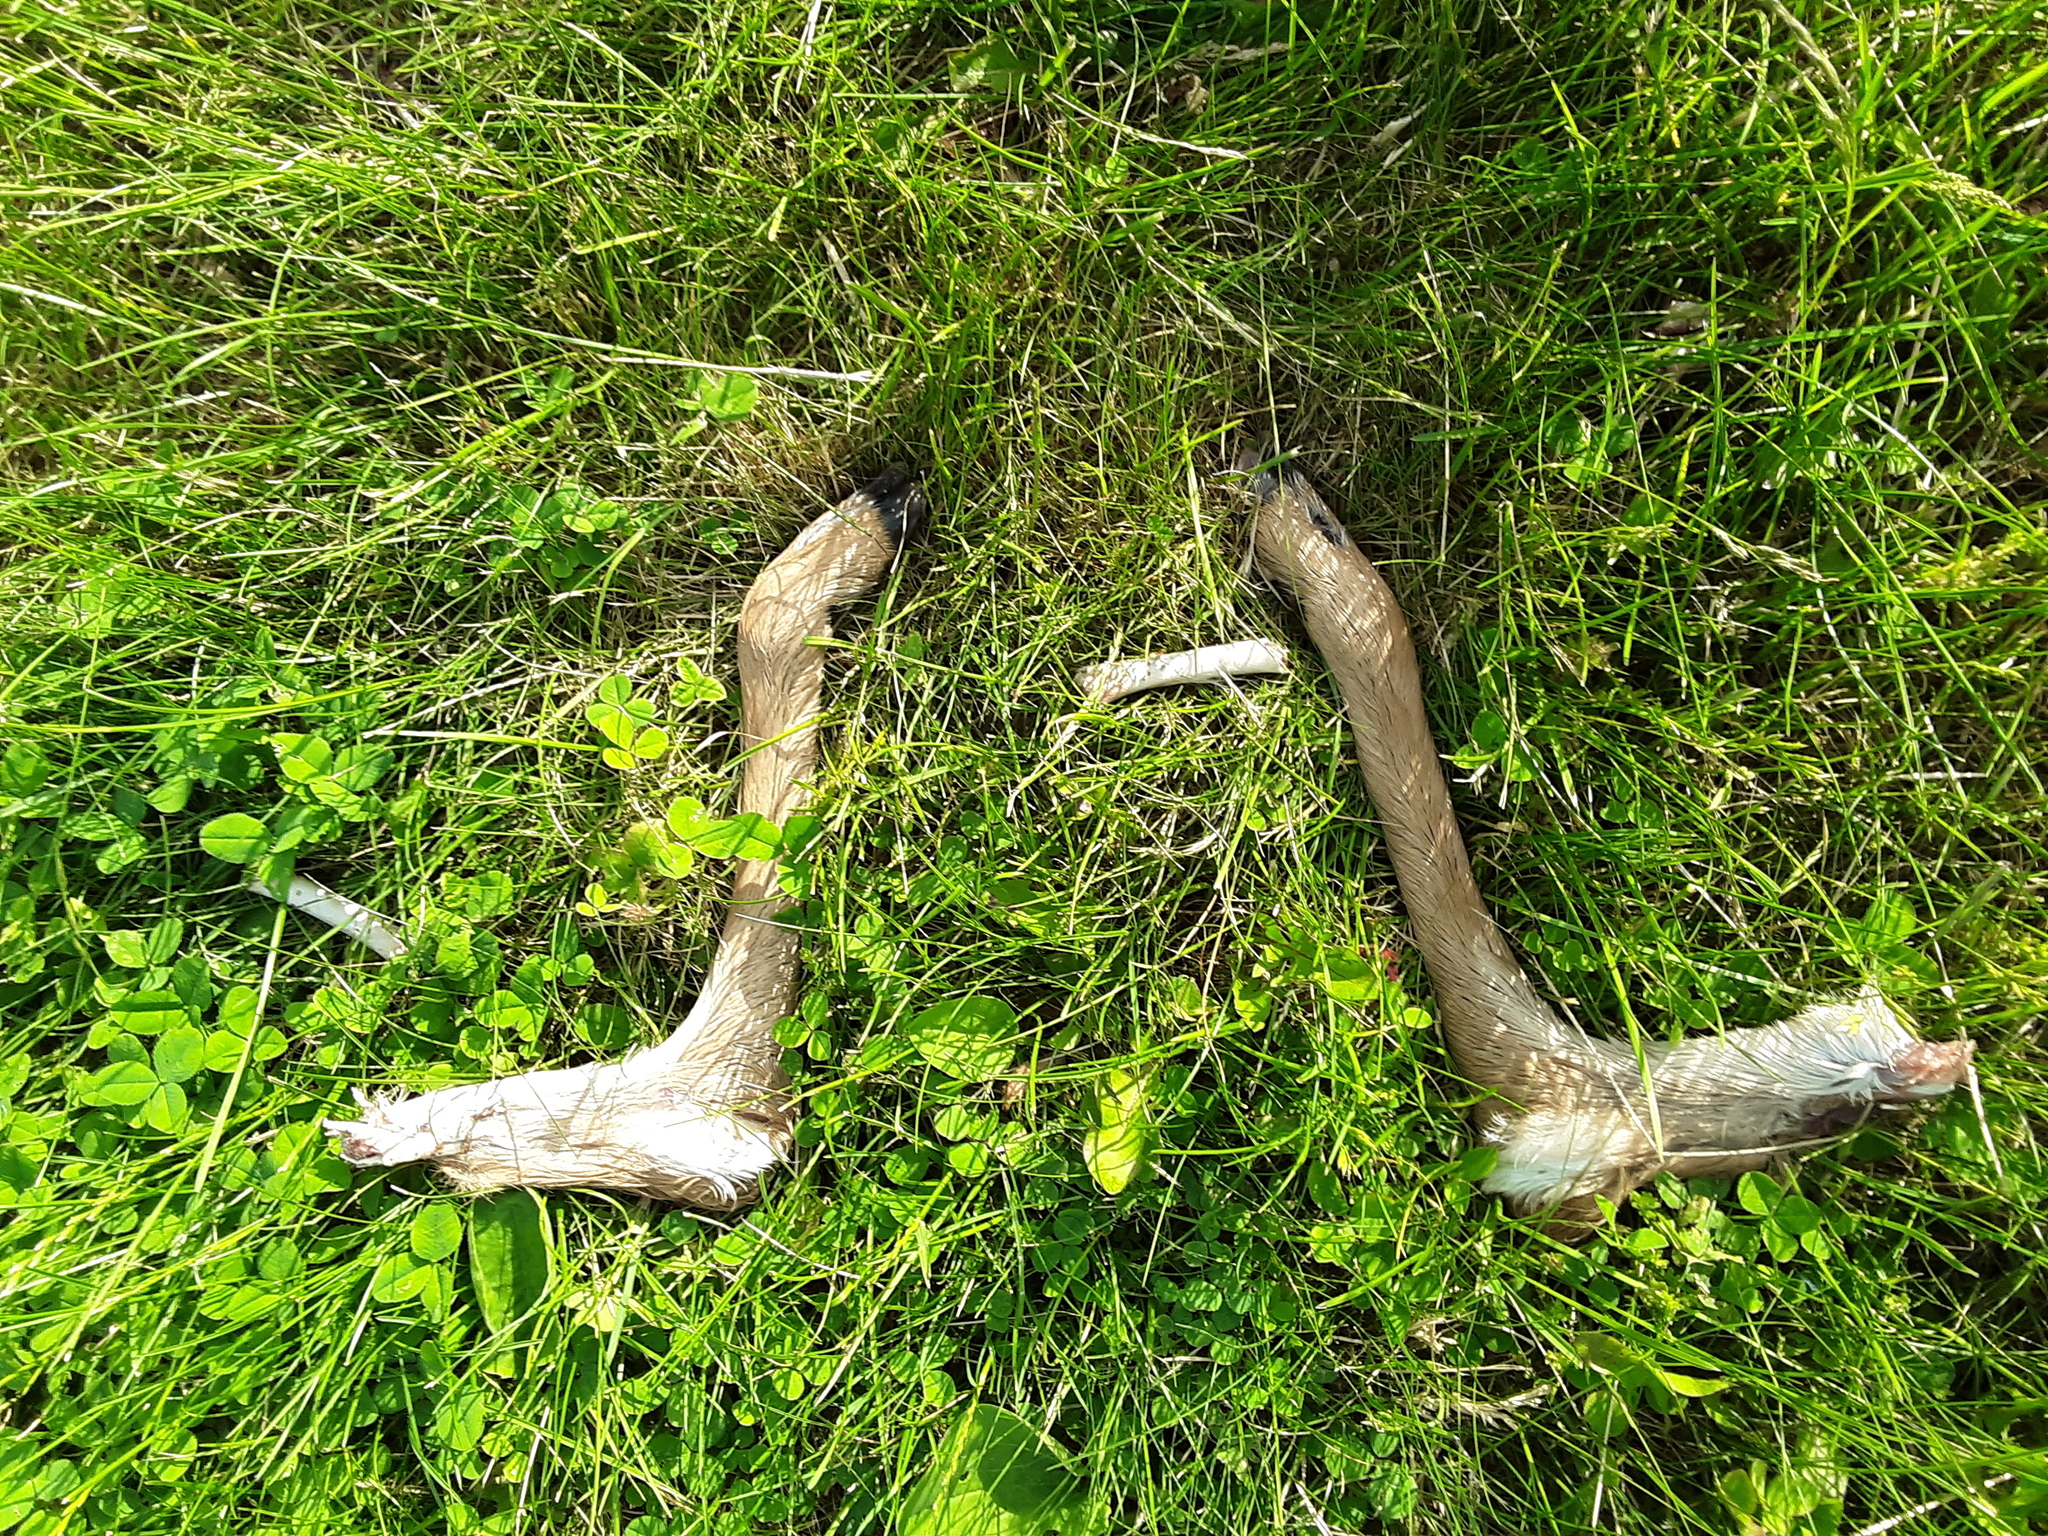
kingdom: Animalia
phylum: Chordata
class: Mammalia
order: Artiodactyla
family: Cervidae
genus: Odocoileus
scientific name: Odocoileus virginianus
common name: White-tailed deer
